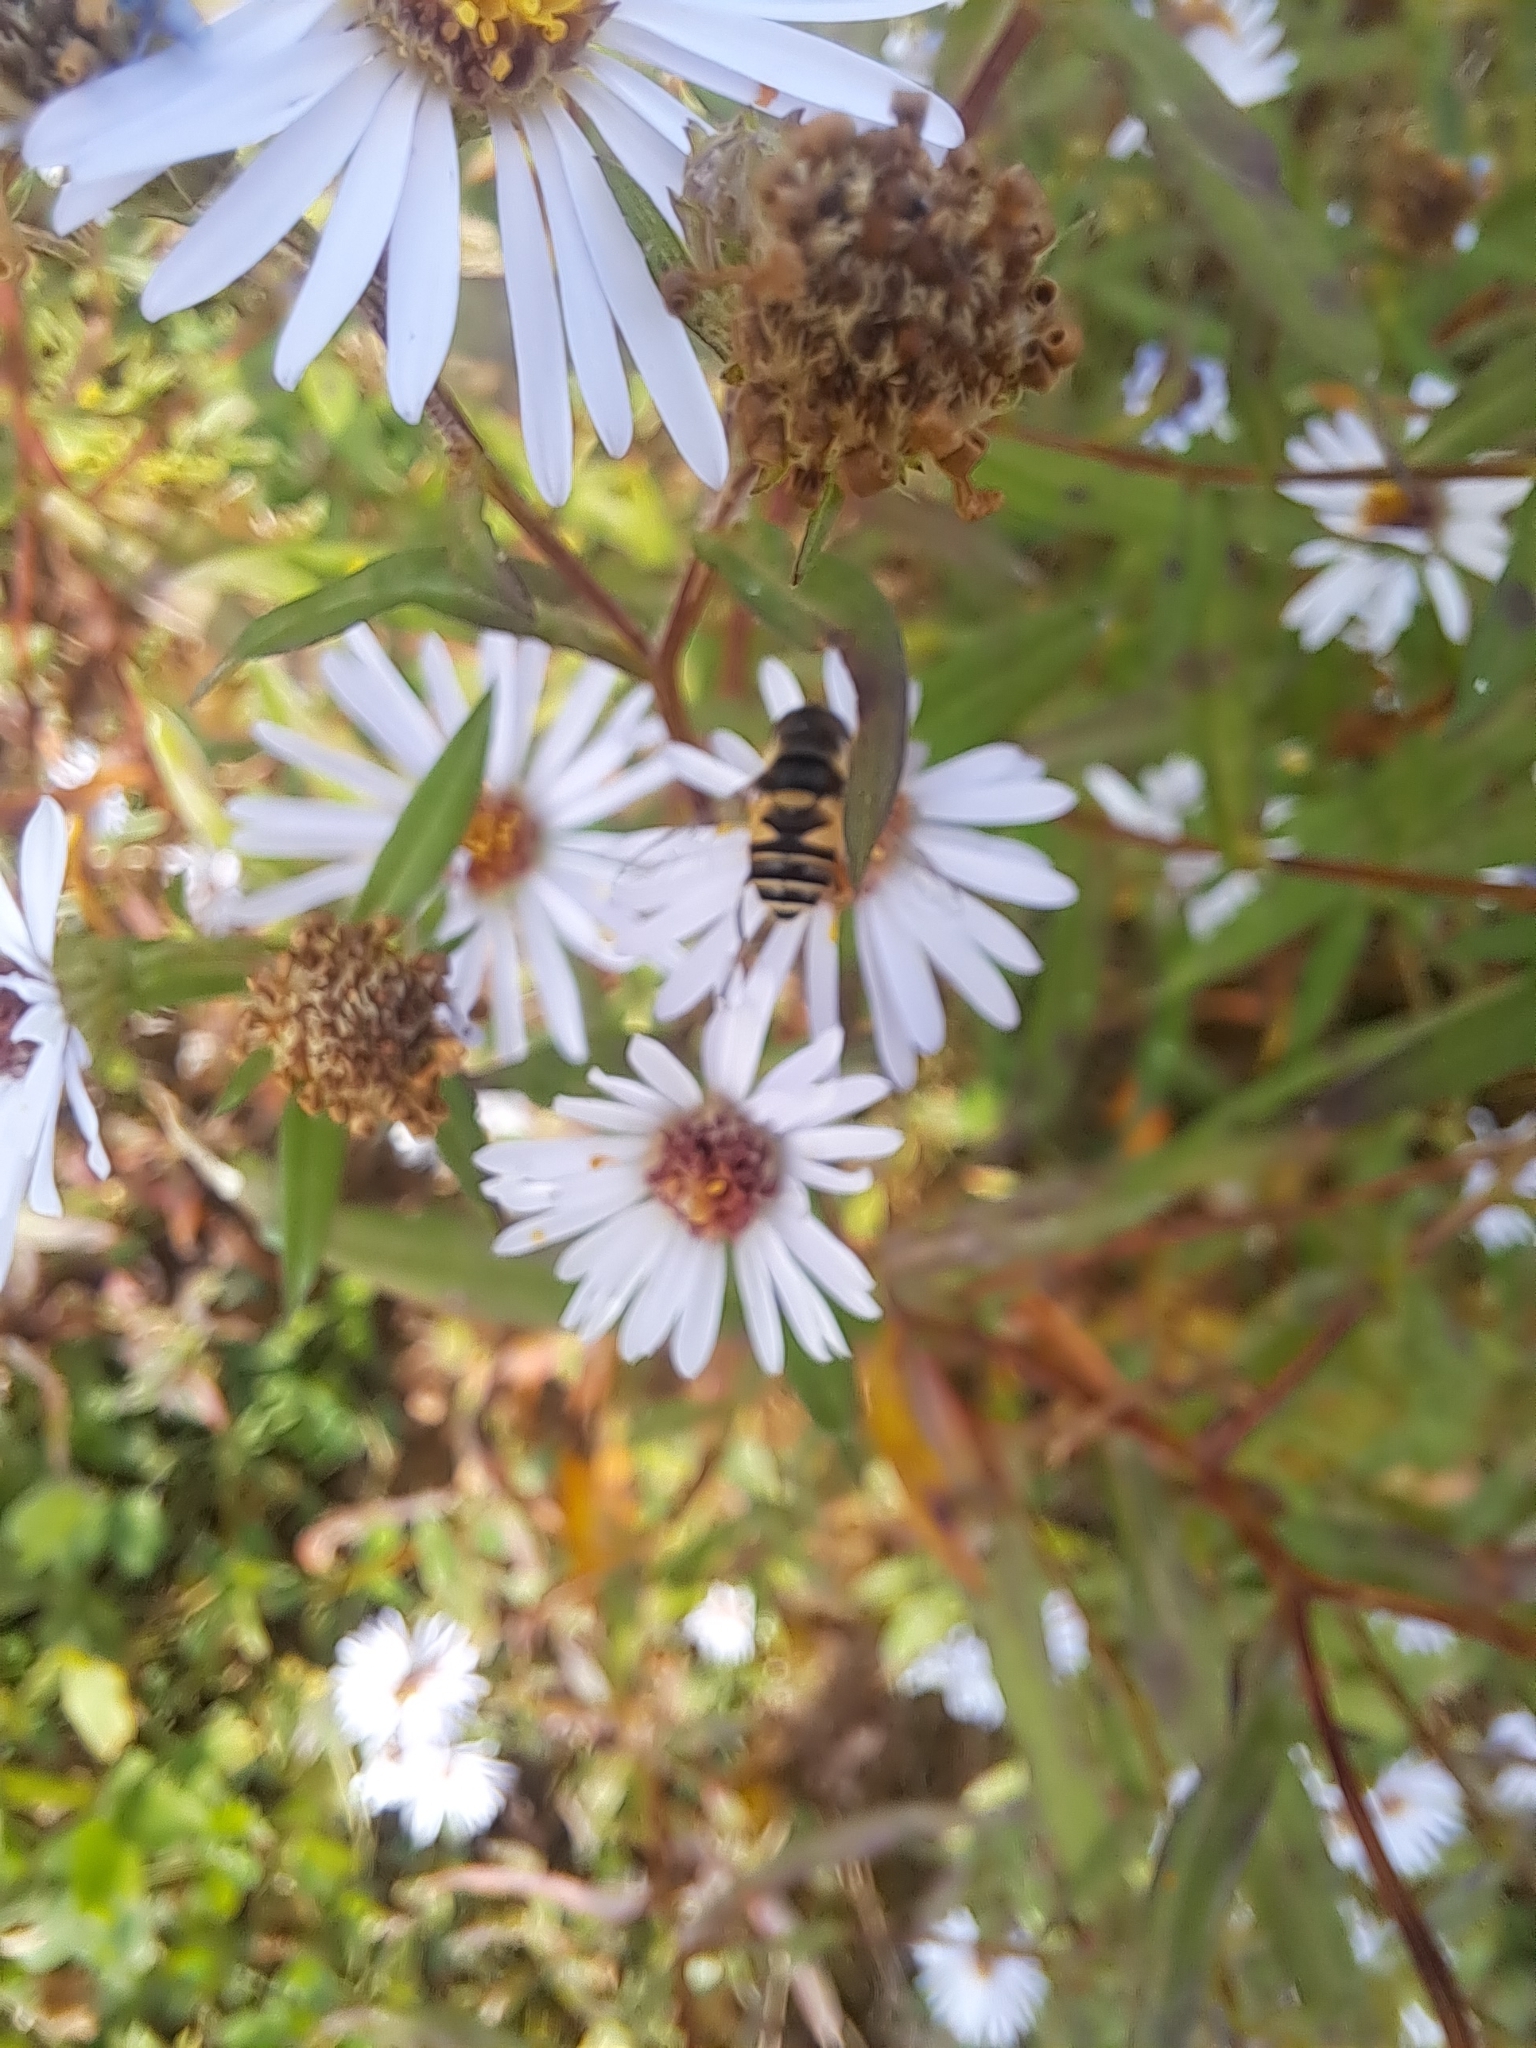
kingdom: Animalia
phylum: Arthropoda
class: Insecta
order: Diptera
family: Syrphidae
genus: Eristalis
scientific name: Eristalis transversa
